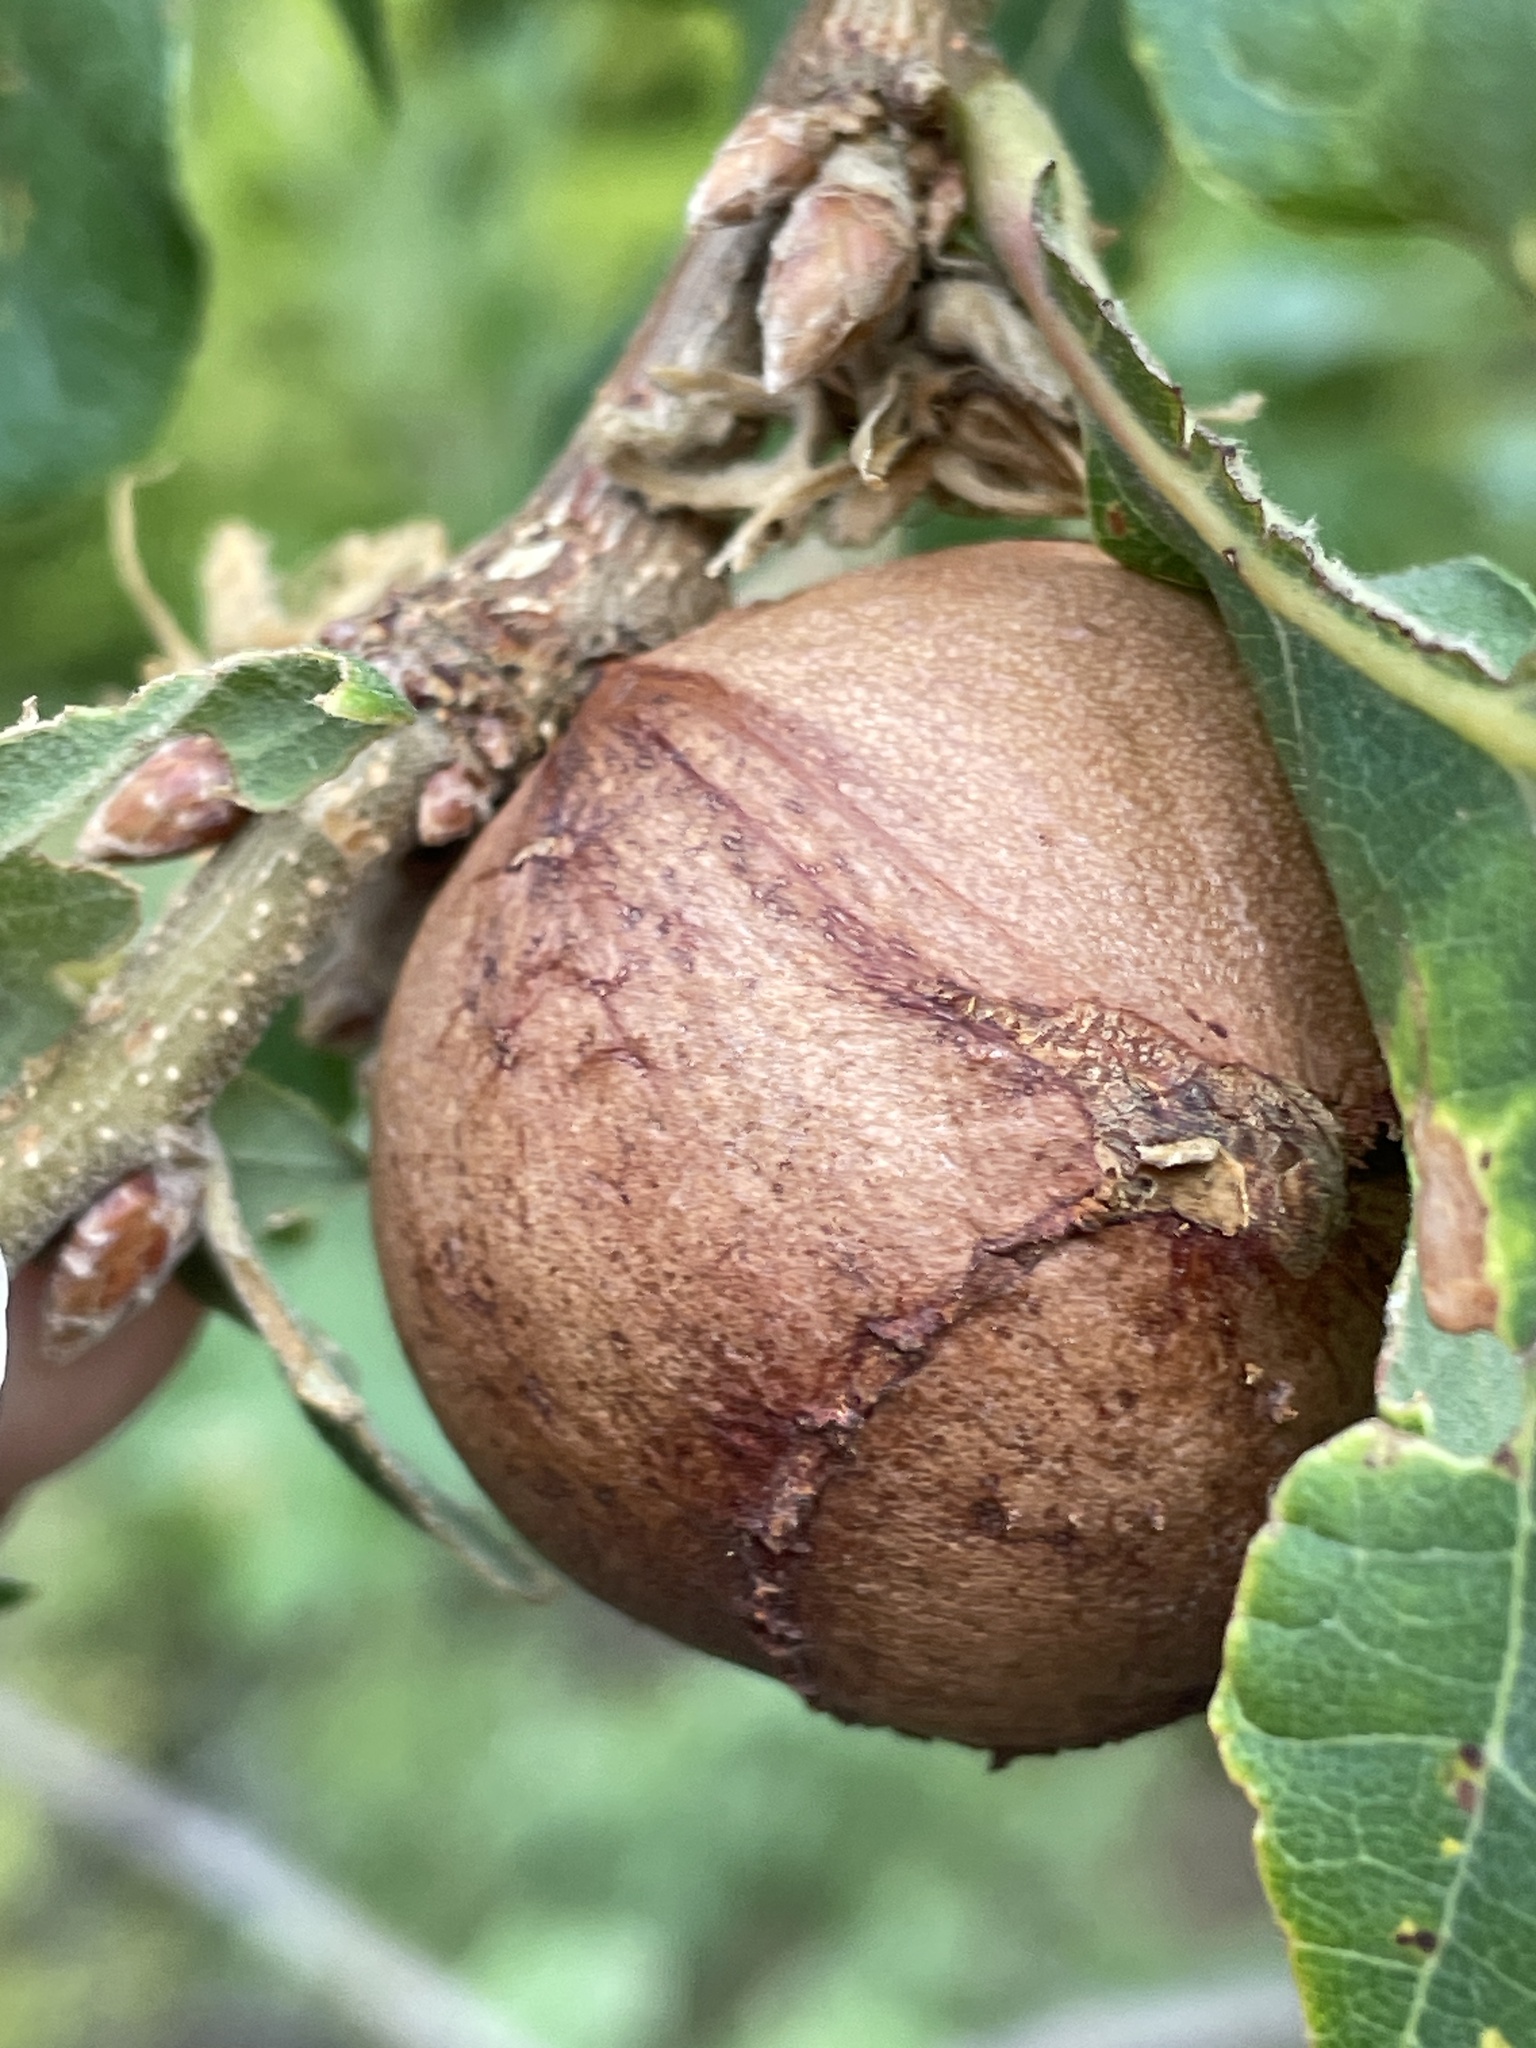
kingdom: Animalia
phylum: Arthropoda
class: Insecta
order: Hymenoptera
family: Cynipidae
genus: Andricus
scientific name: Andricus quercustozae
